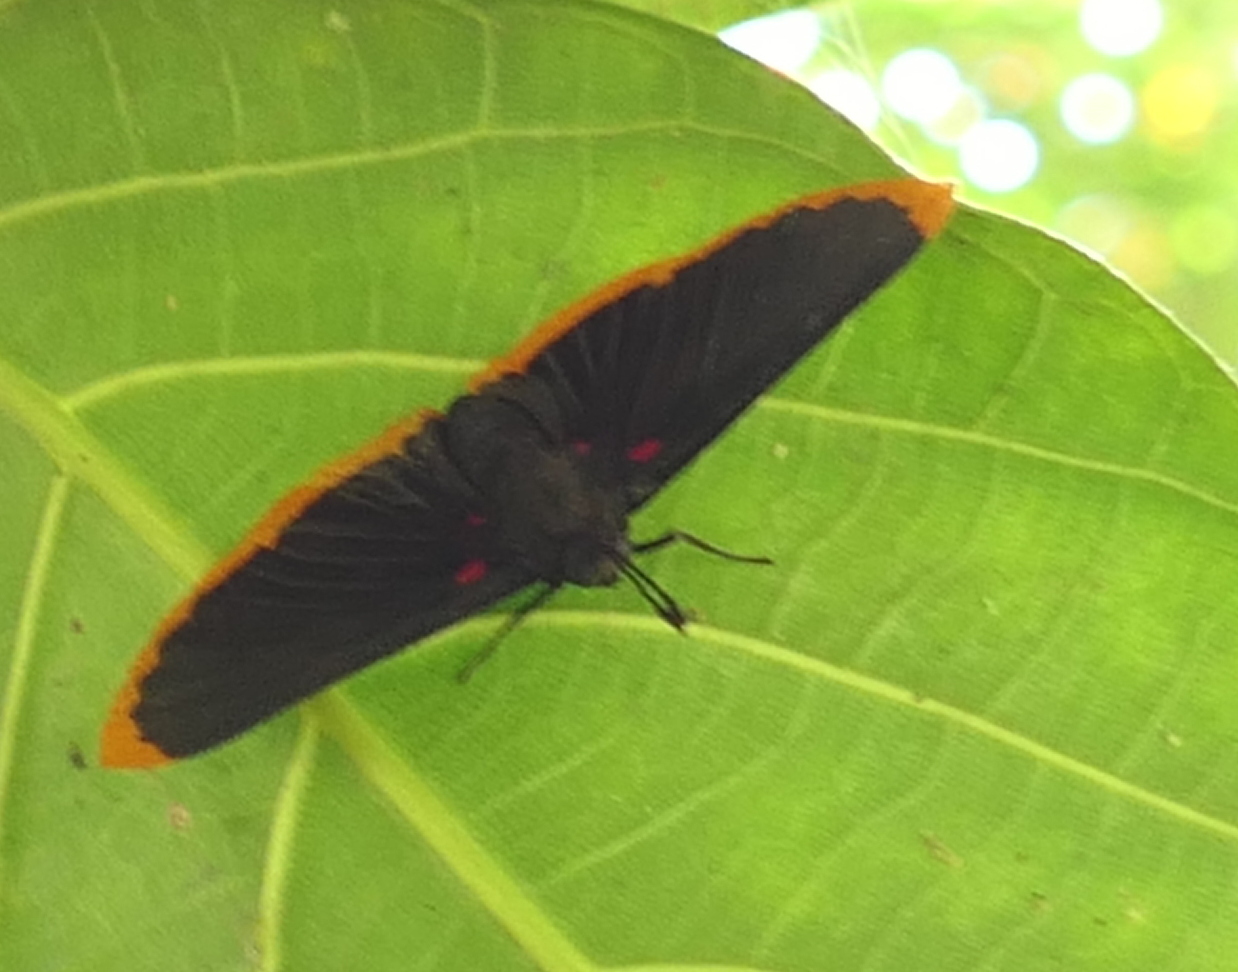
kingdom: Animalia
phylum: Arthropoda
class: Insecta
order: Lepidoptera
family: Lycaenidae
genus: Melanis
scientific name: Melanis smithiae
